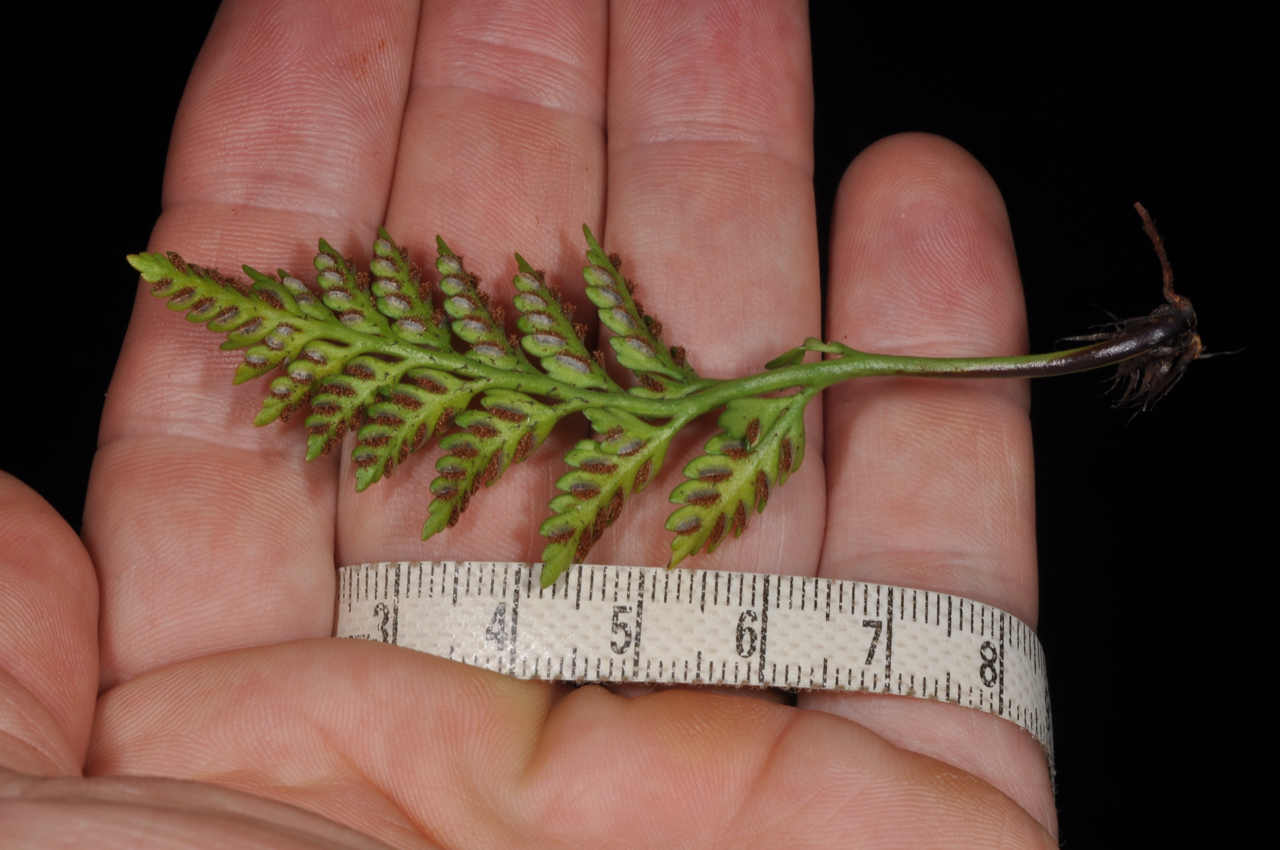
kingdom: Plantae
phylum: Tracheophyta
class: Polypodiopsida
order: Polypodiales
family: Aspleniaceae
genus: Asplenium
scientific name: Asplenium appendiculatum
